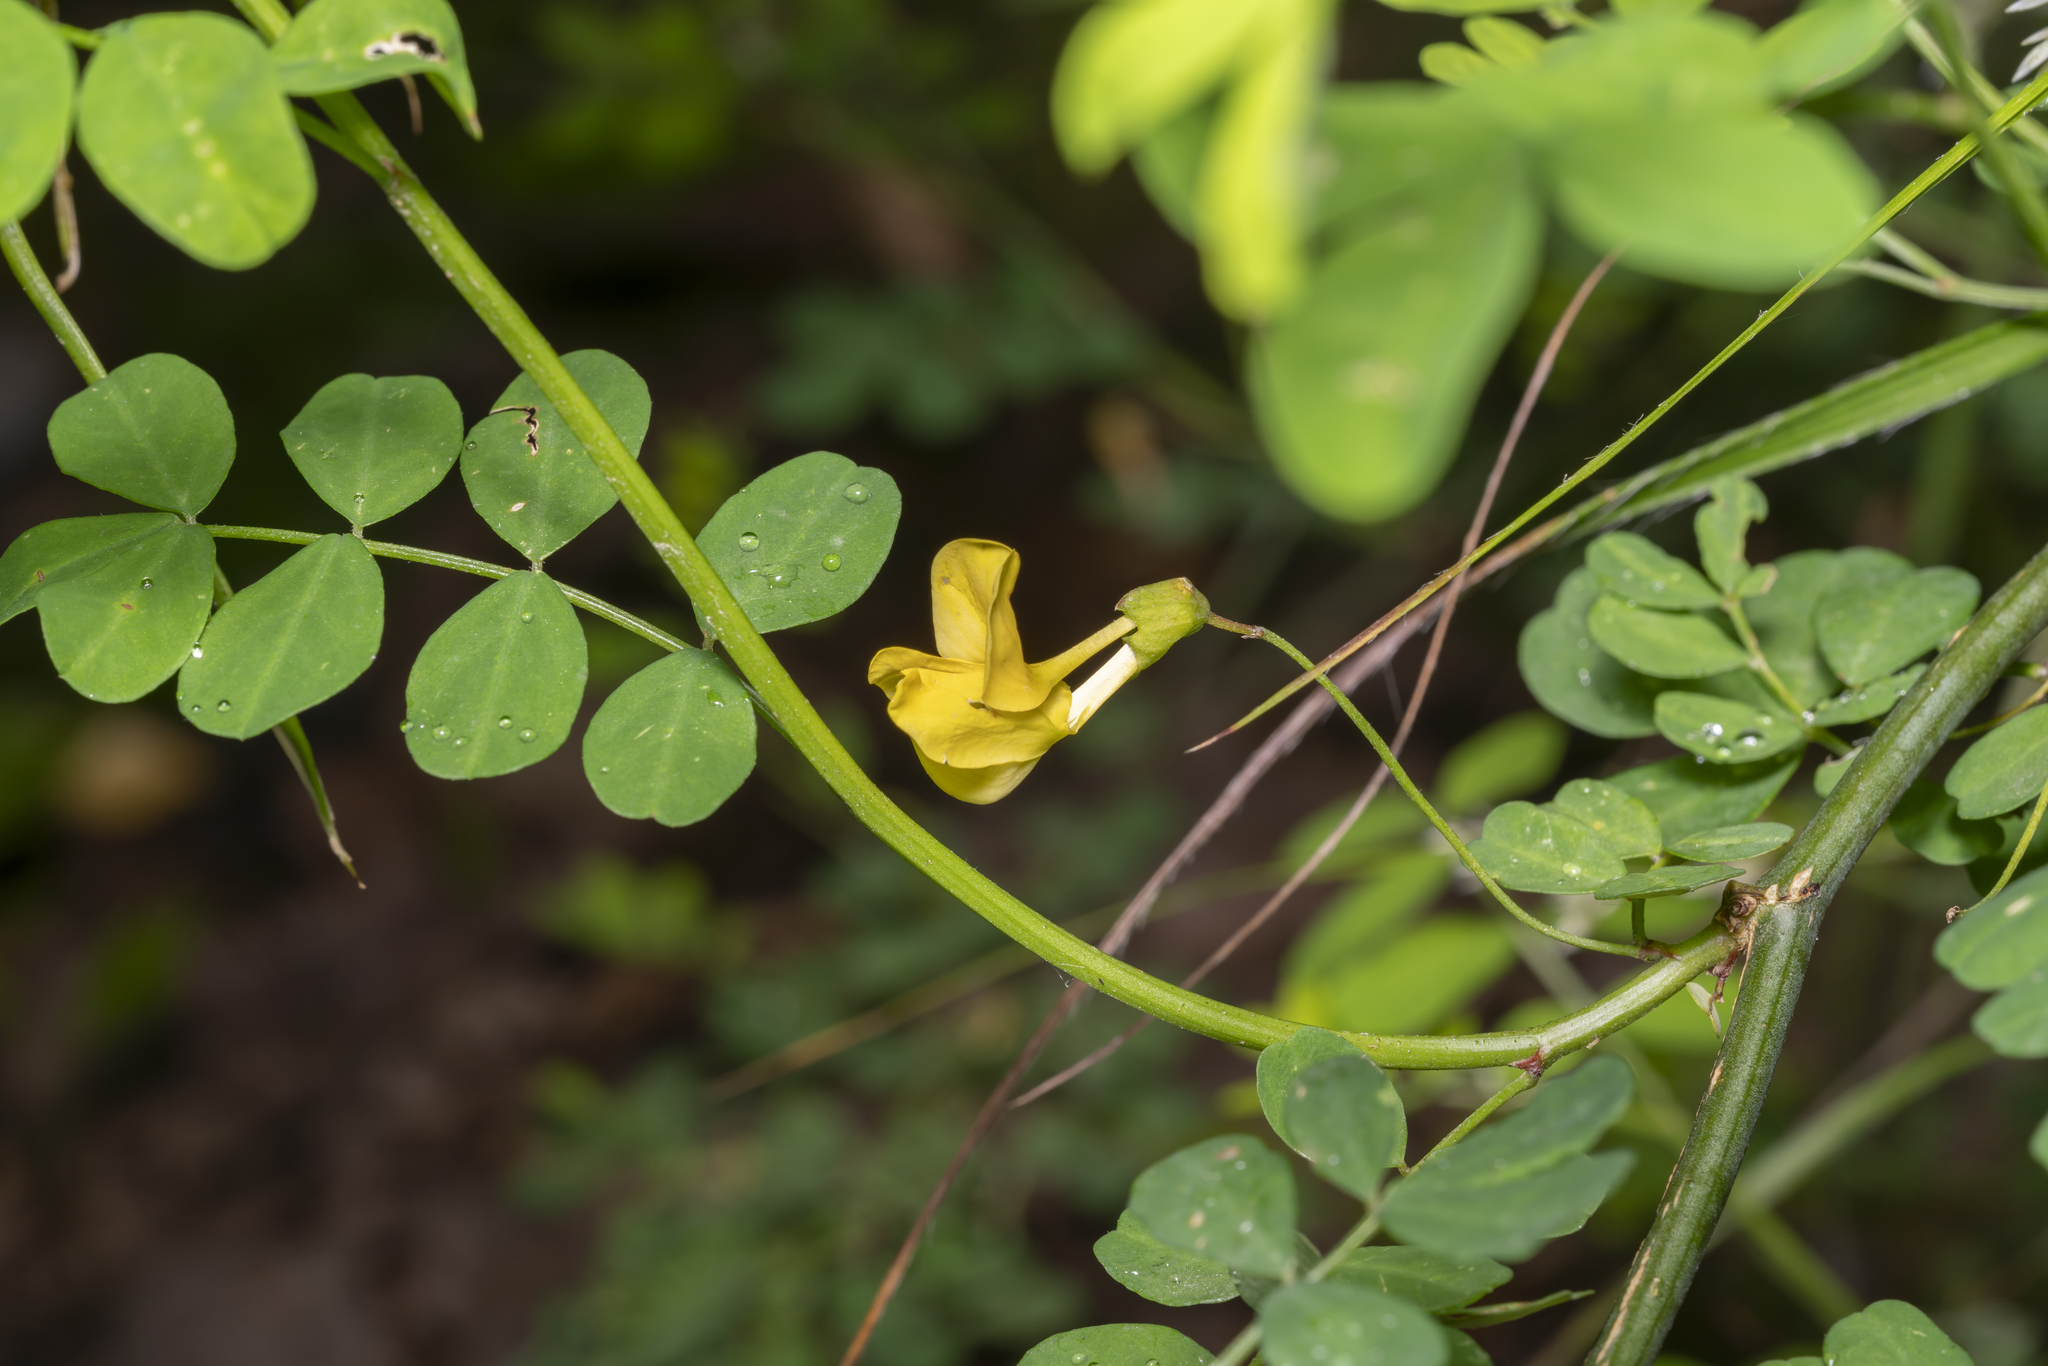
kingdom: Plantae
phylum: Tracheophyta
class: Magnoliopsida
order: Fabales
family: Fabaceae
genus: Hippocrepis
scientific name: Hippocrepis emerus
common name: Scorpion senna
